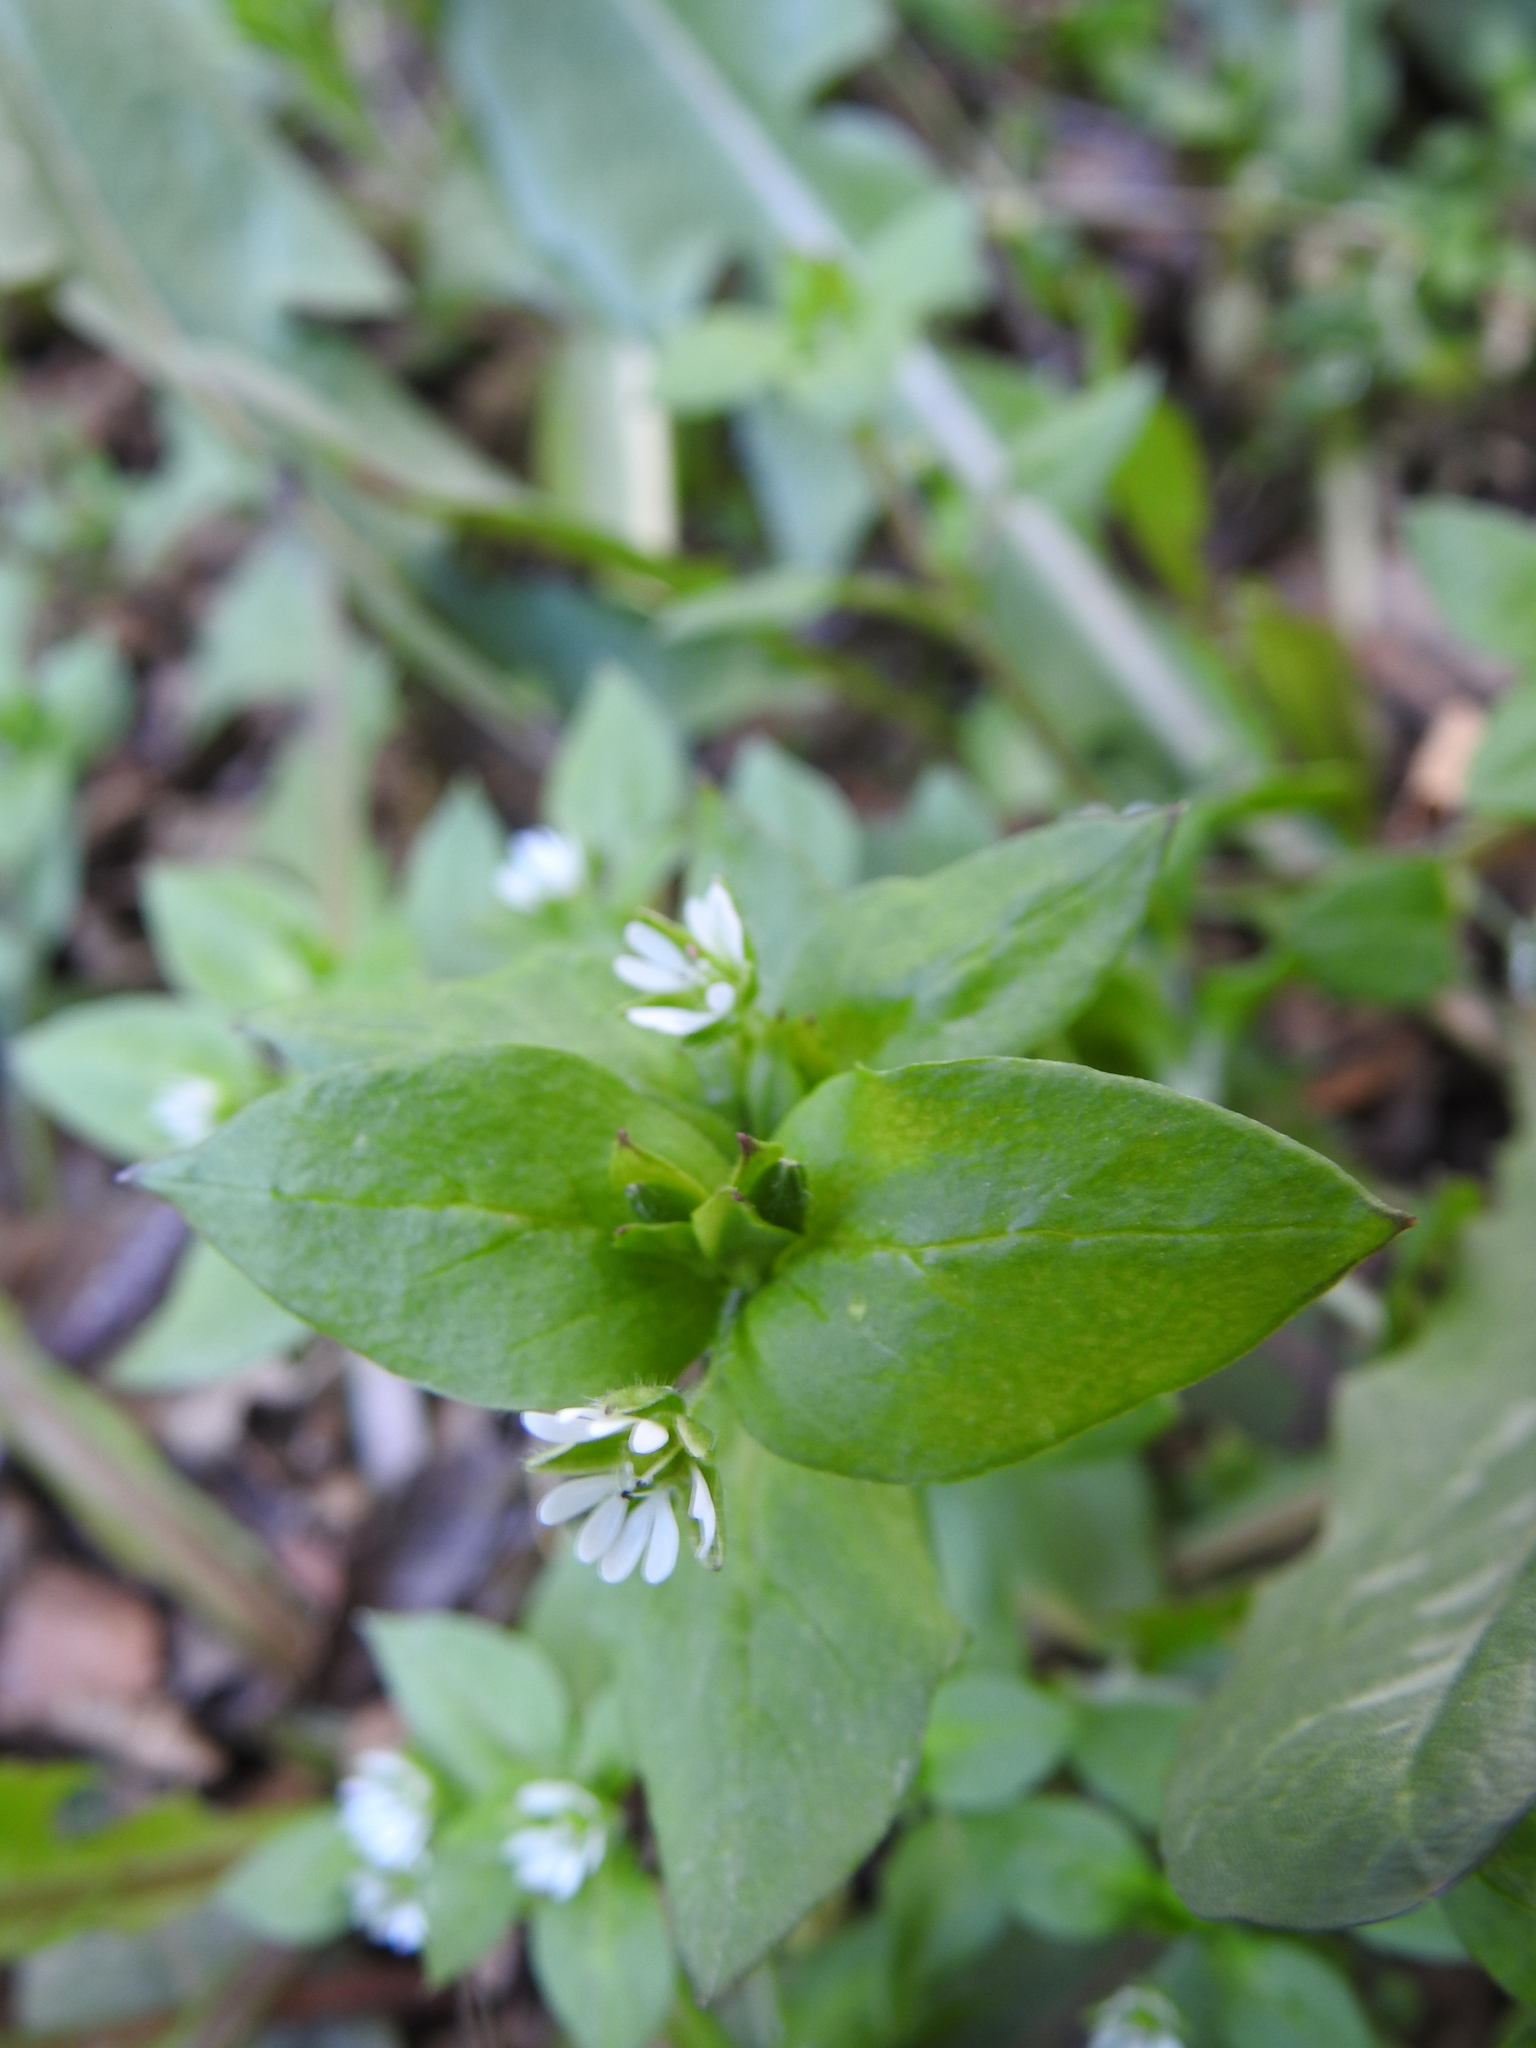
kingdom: Plantae
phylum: Tracheophyta
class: Magnoliopsida
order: Caryophyllales
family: Caryophyllaceae
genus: Stellaria
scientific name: Stellaria media
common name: Common chickweed
